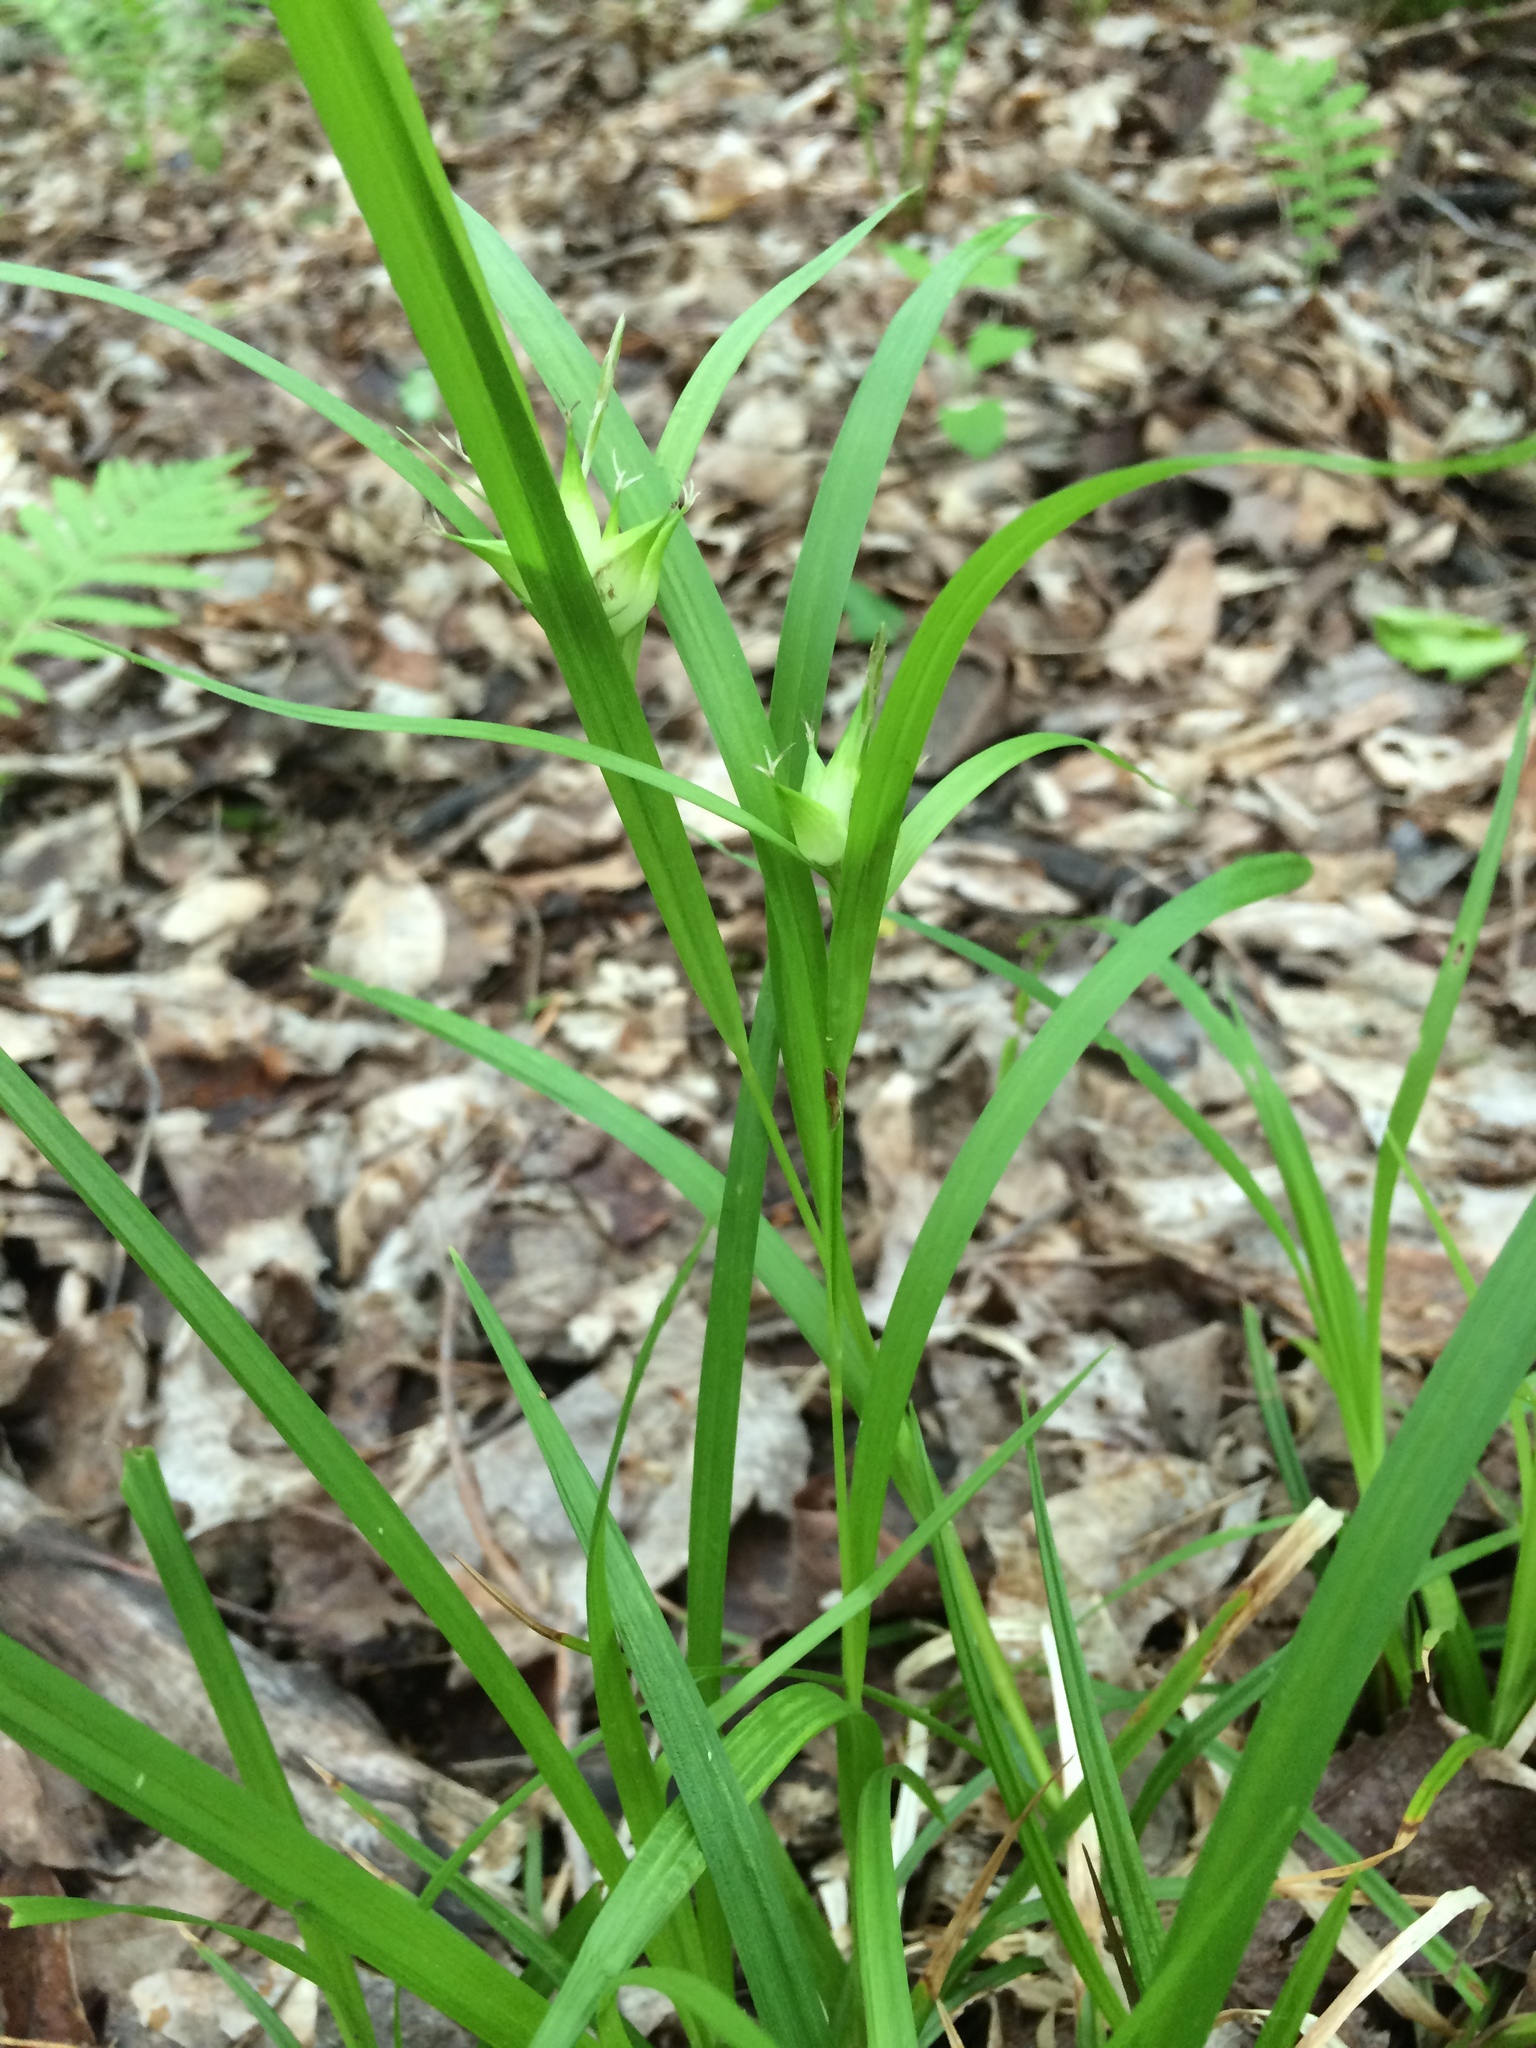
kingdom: Plantae
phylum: Tracheophyta
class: Liliopsida
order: Poales
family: Cyperaceae
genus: Carex
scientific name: Carex intumescens
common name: Greater bladder sedge
